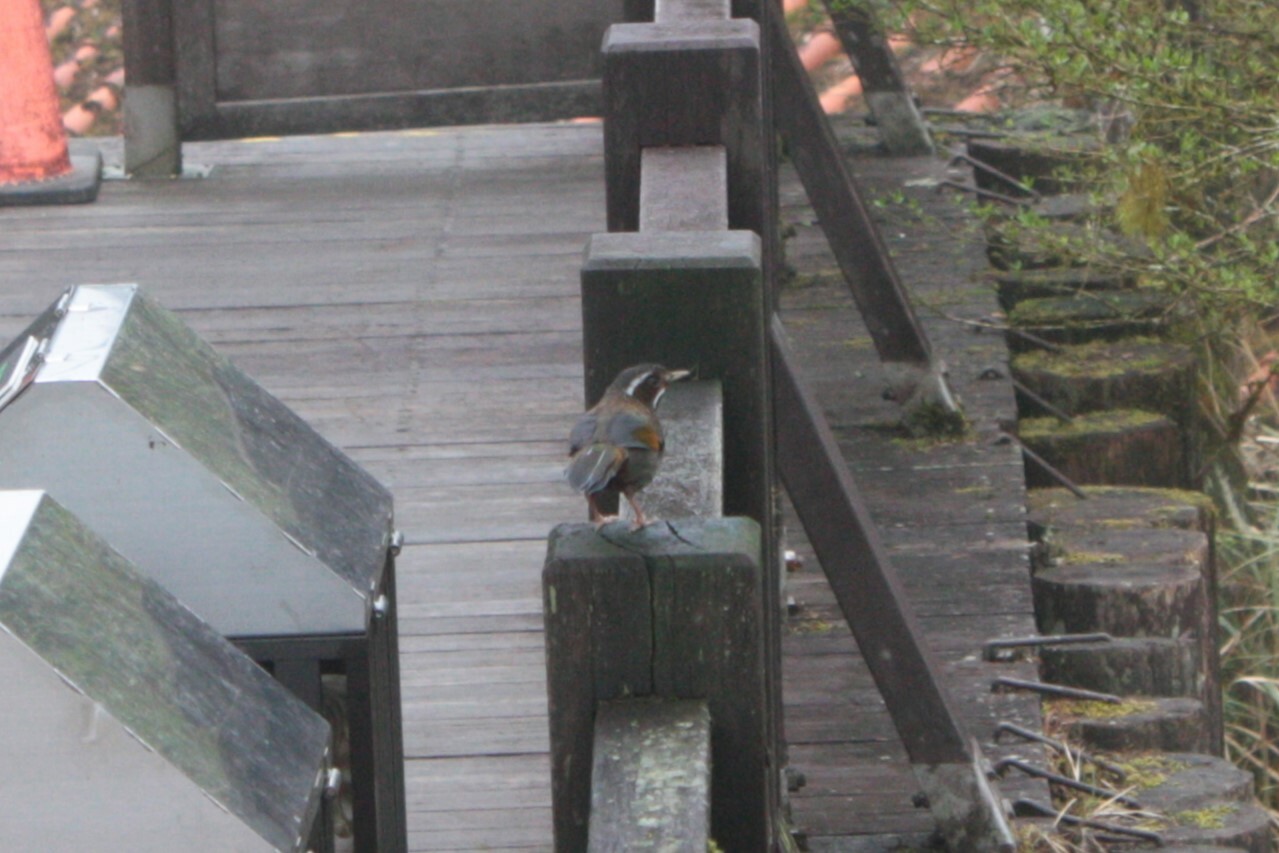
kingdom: Animalia
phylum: Chordata
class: Aves
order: Passeriformes
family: Leiothrichidae
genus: Trochalopteron
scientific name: Trochalopteron morrisonianum
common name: White-whiskered laughingthrush
